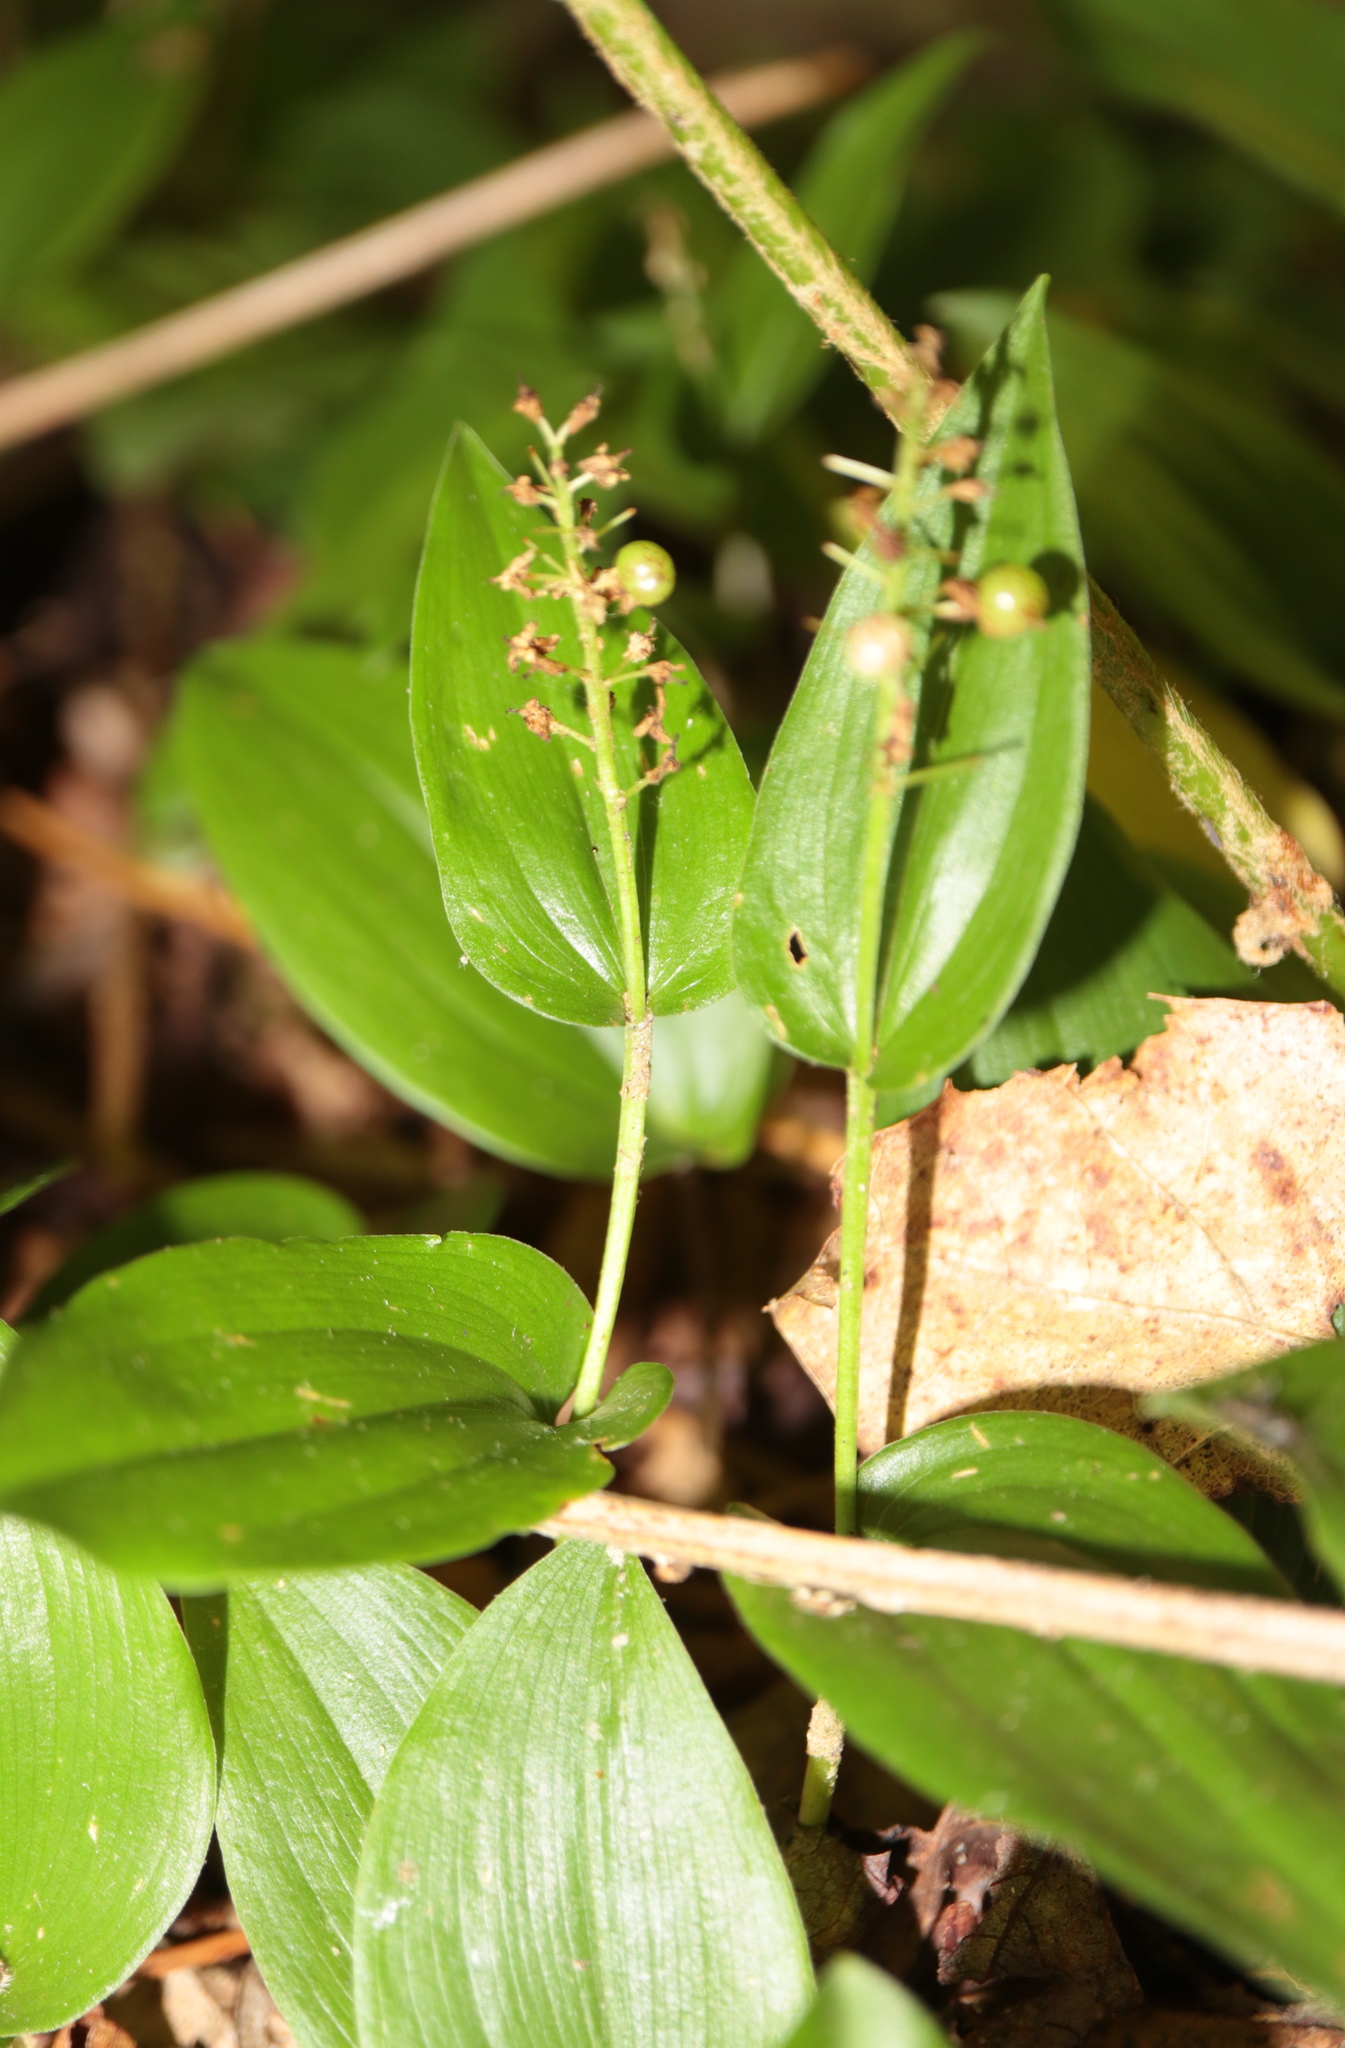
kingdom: Plantae
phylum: Tracheophyta
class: Liliopsida
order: Asparagales
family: Asparagaceae
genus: Maianthemum
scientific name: Maianthemum canadense
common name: False lily-of-the-valley
